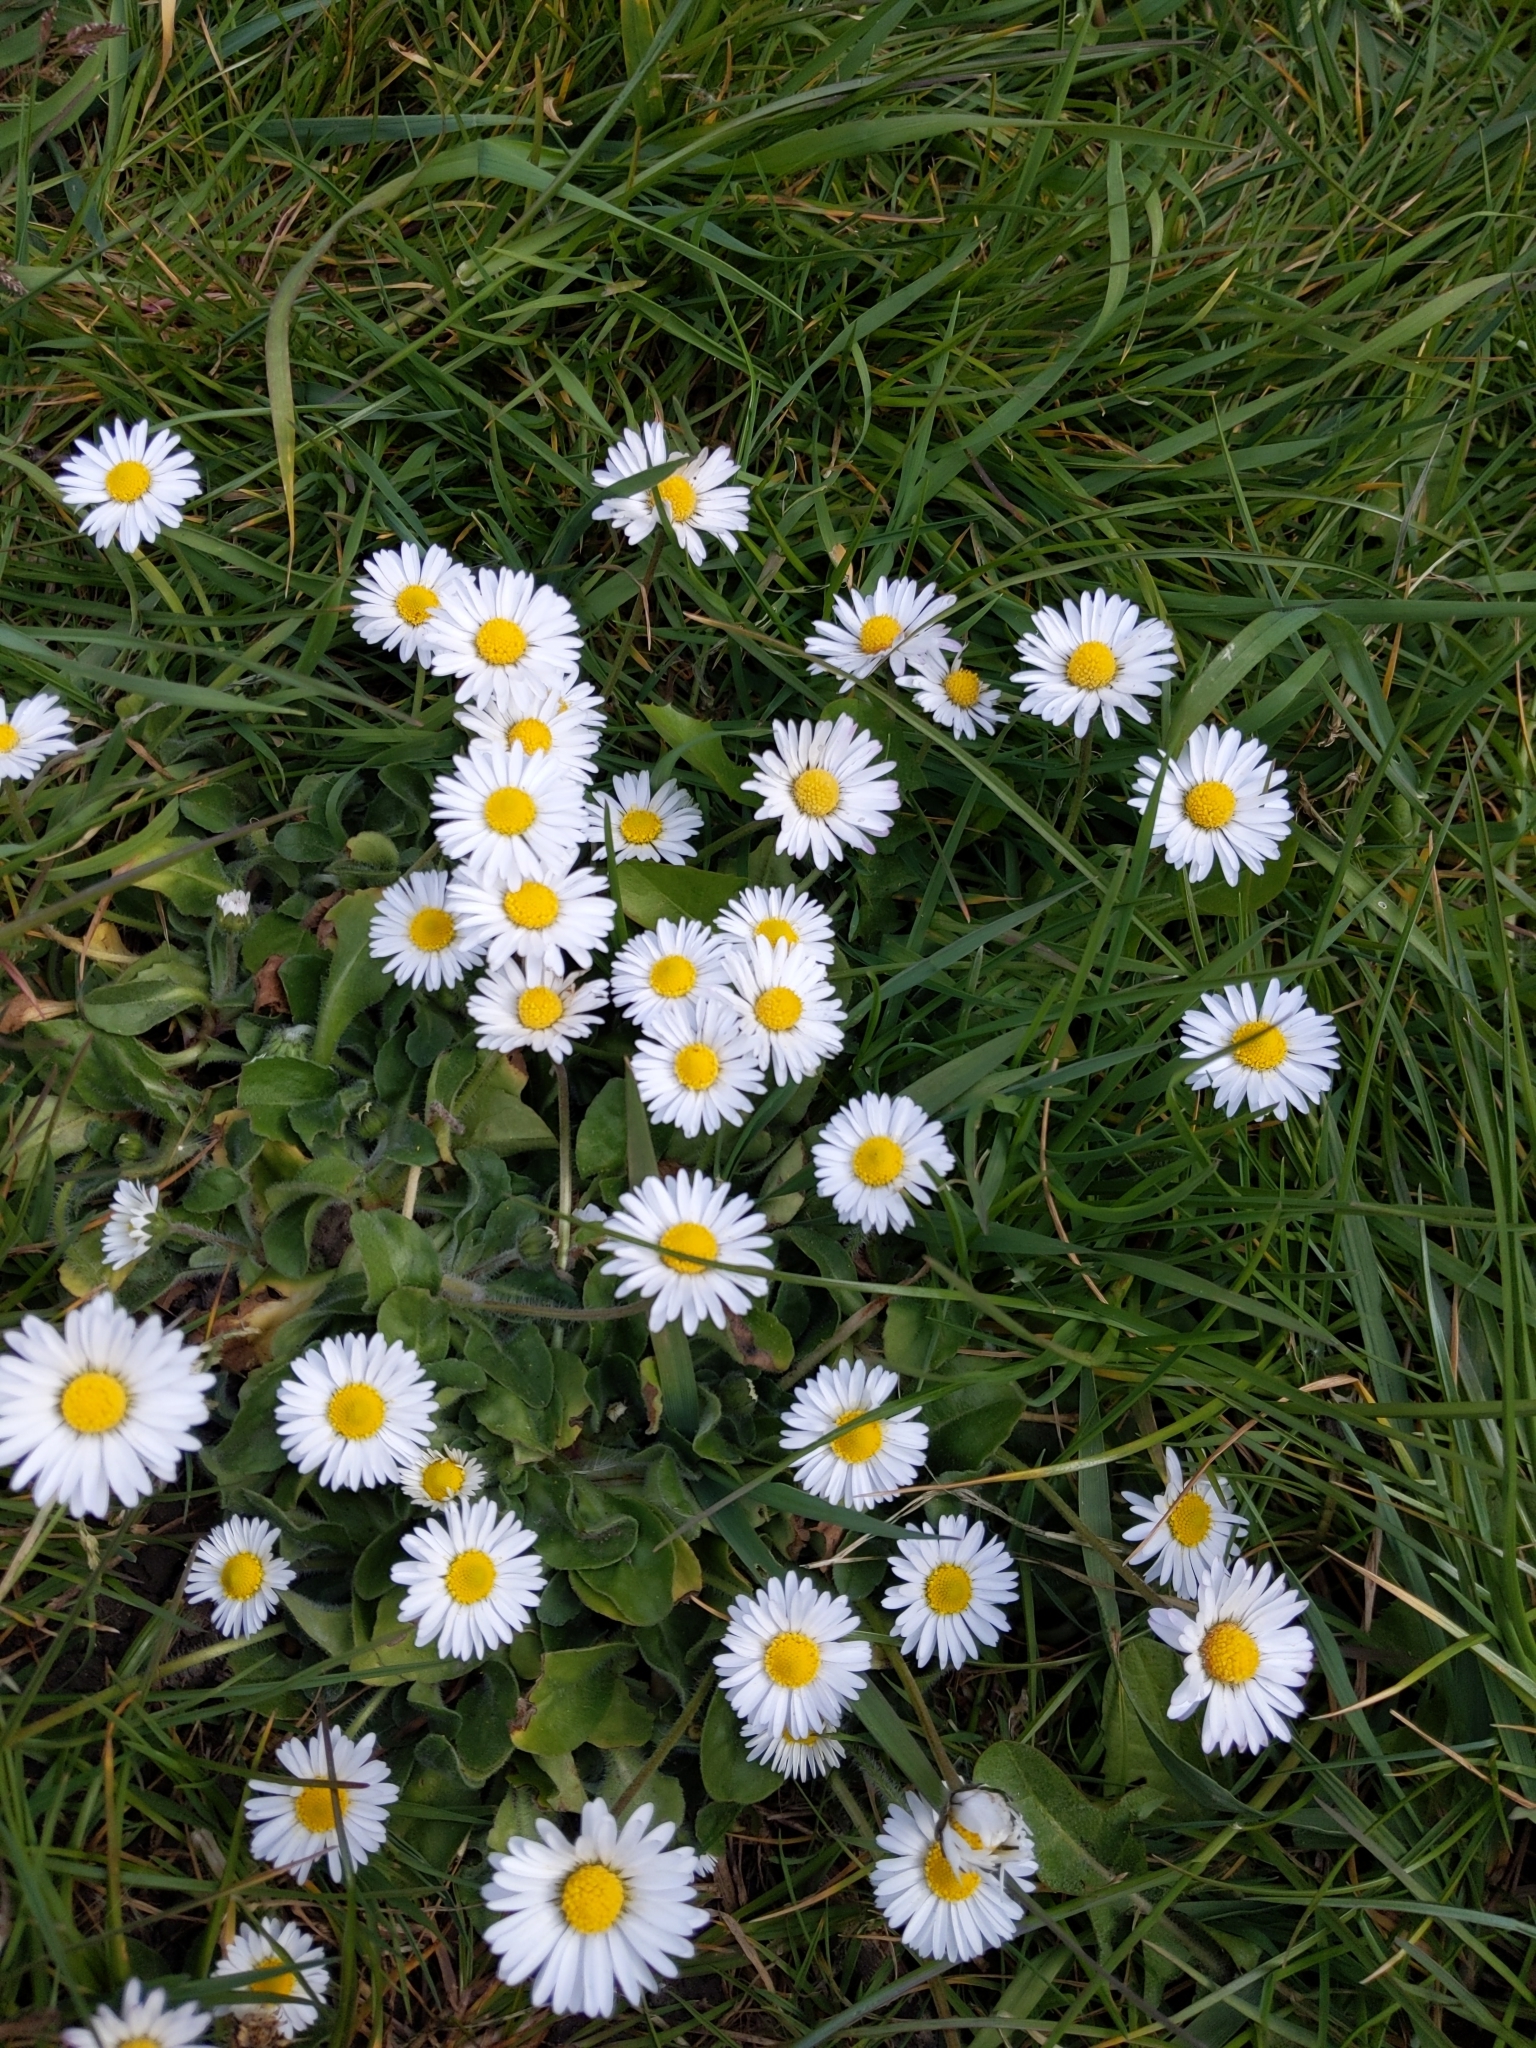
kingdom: Plantae
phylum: Tracheophyta
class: Magnoliopsida
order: Asterales
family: Asteraceae
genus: Bellis
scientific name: Bellis perennis
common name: Lawndaisy
